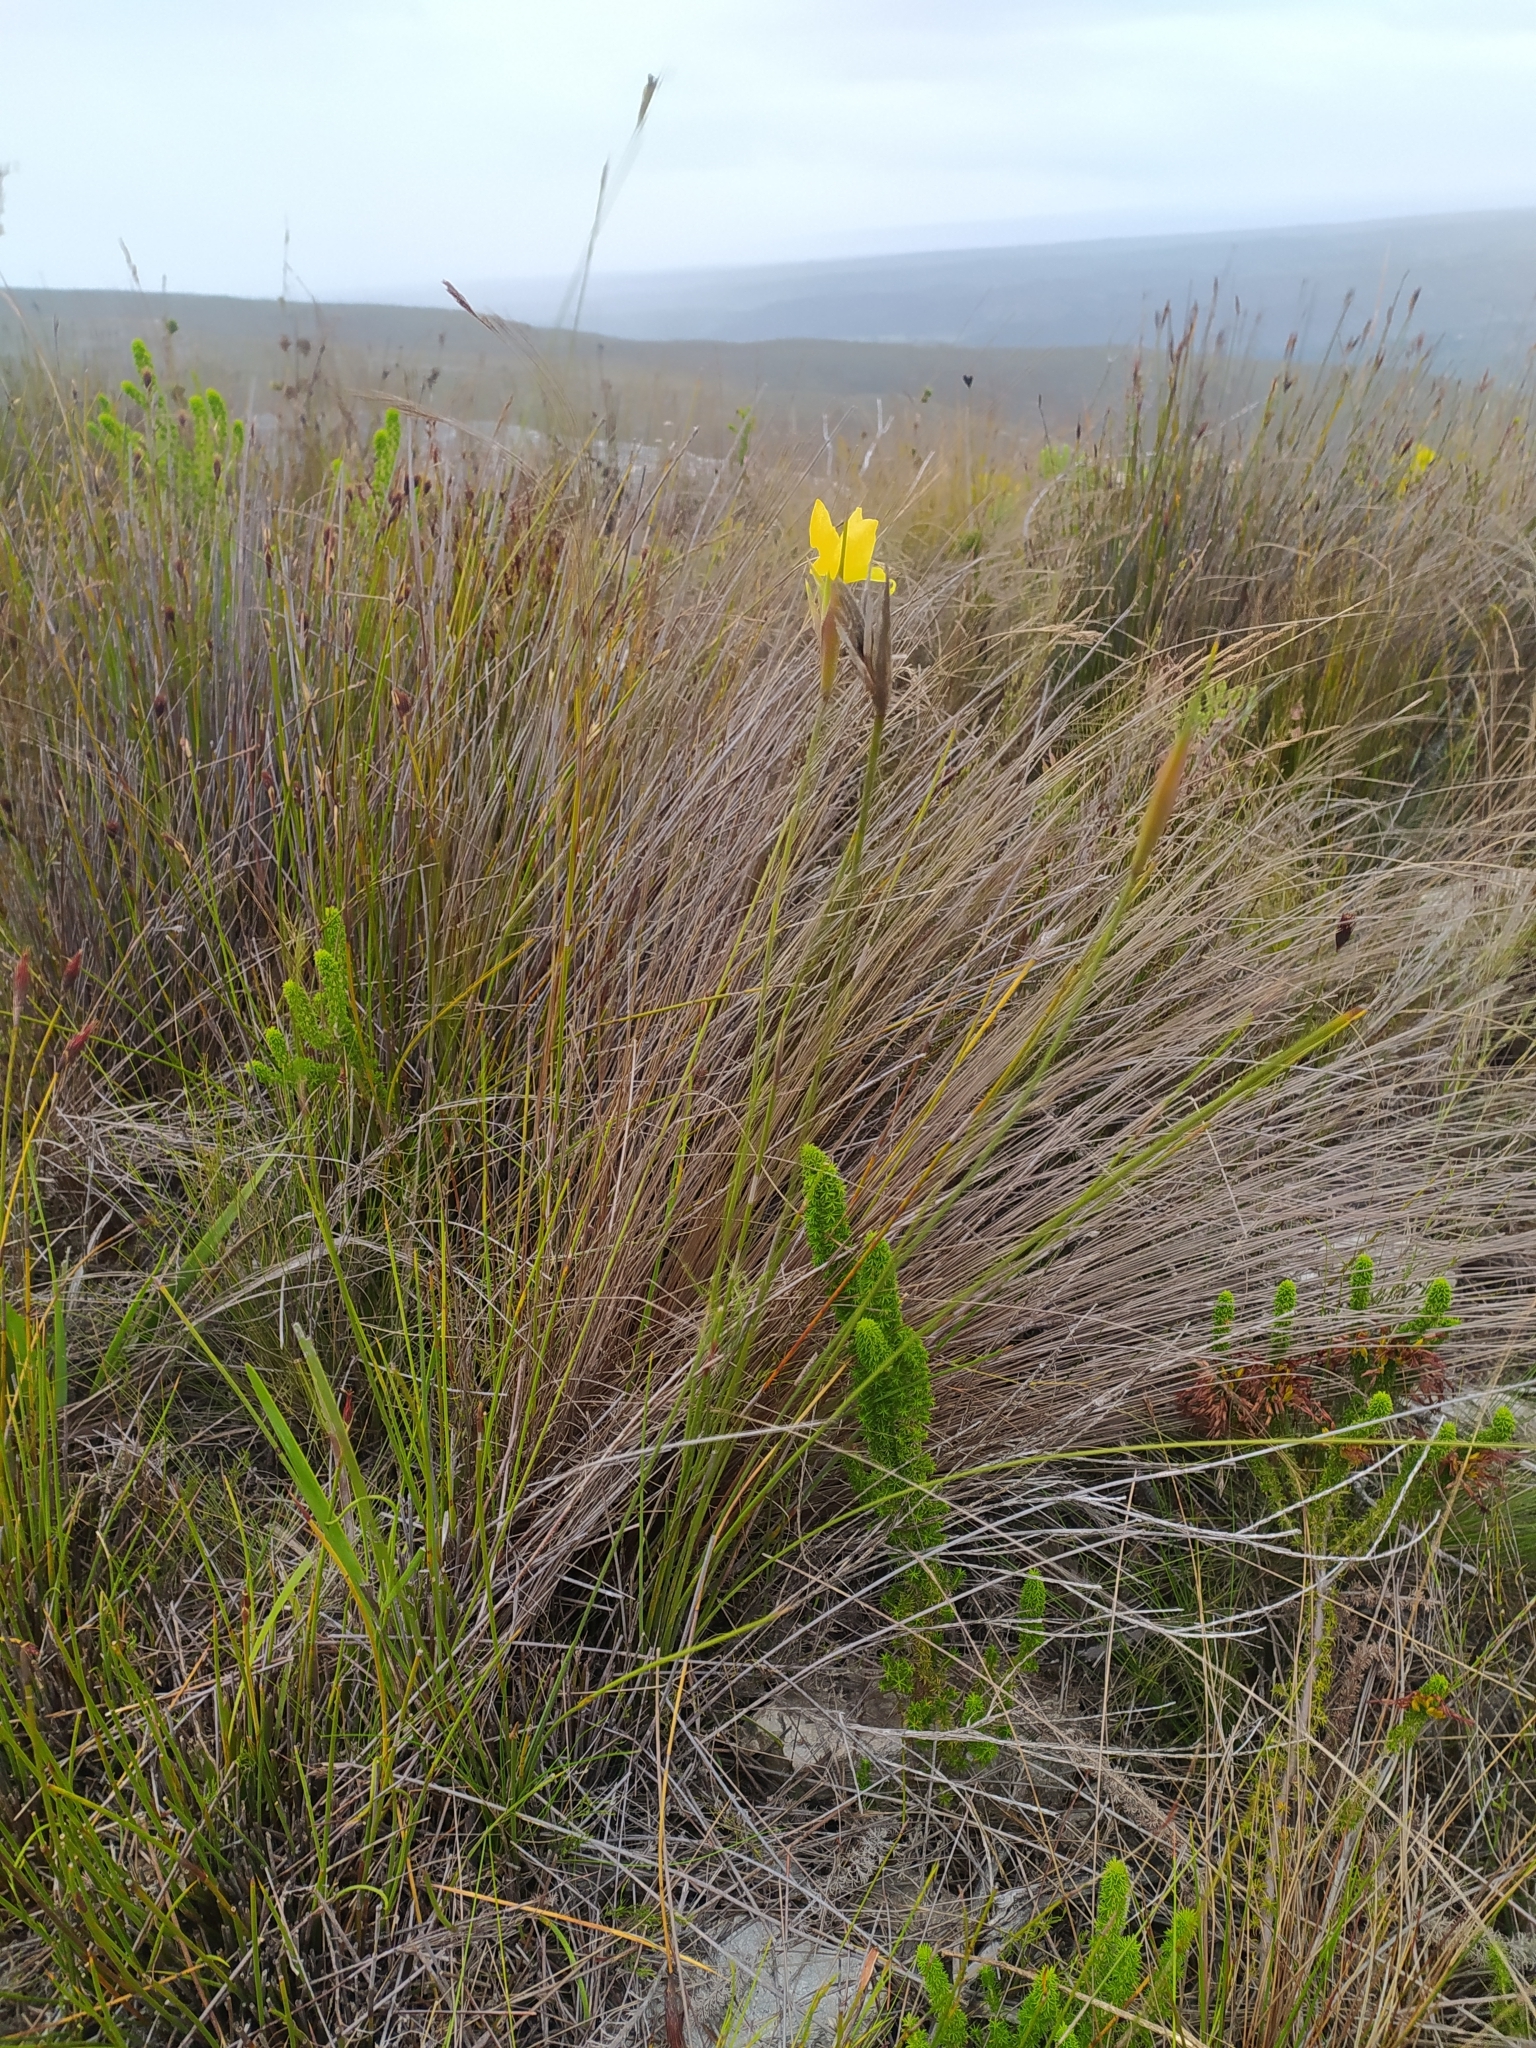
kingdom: Plantae
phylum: Tracheophyta
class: Liliopsida
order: Asparagales
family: Iridaceae
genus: Bobartia
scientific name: Bobartia longicyma
